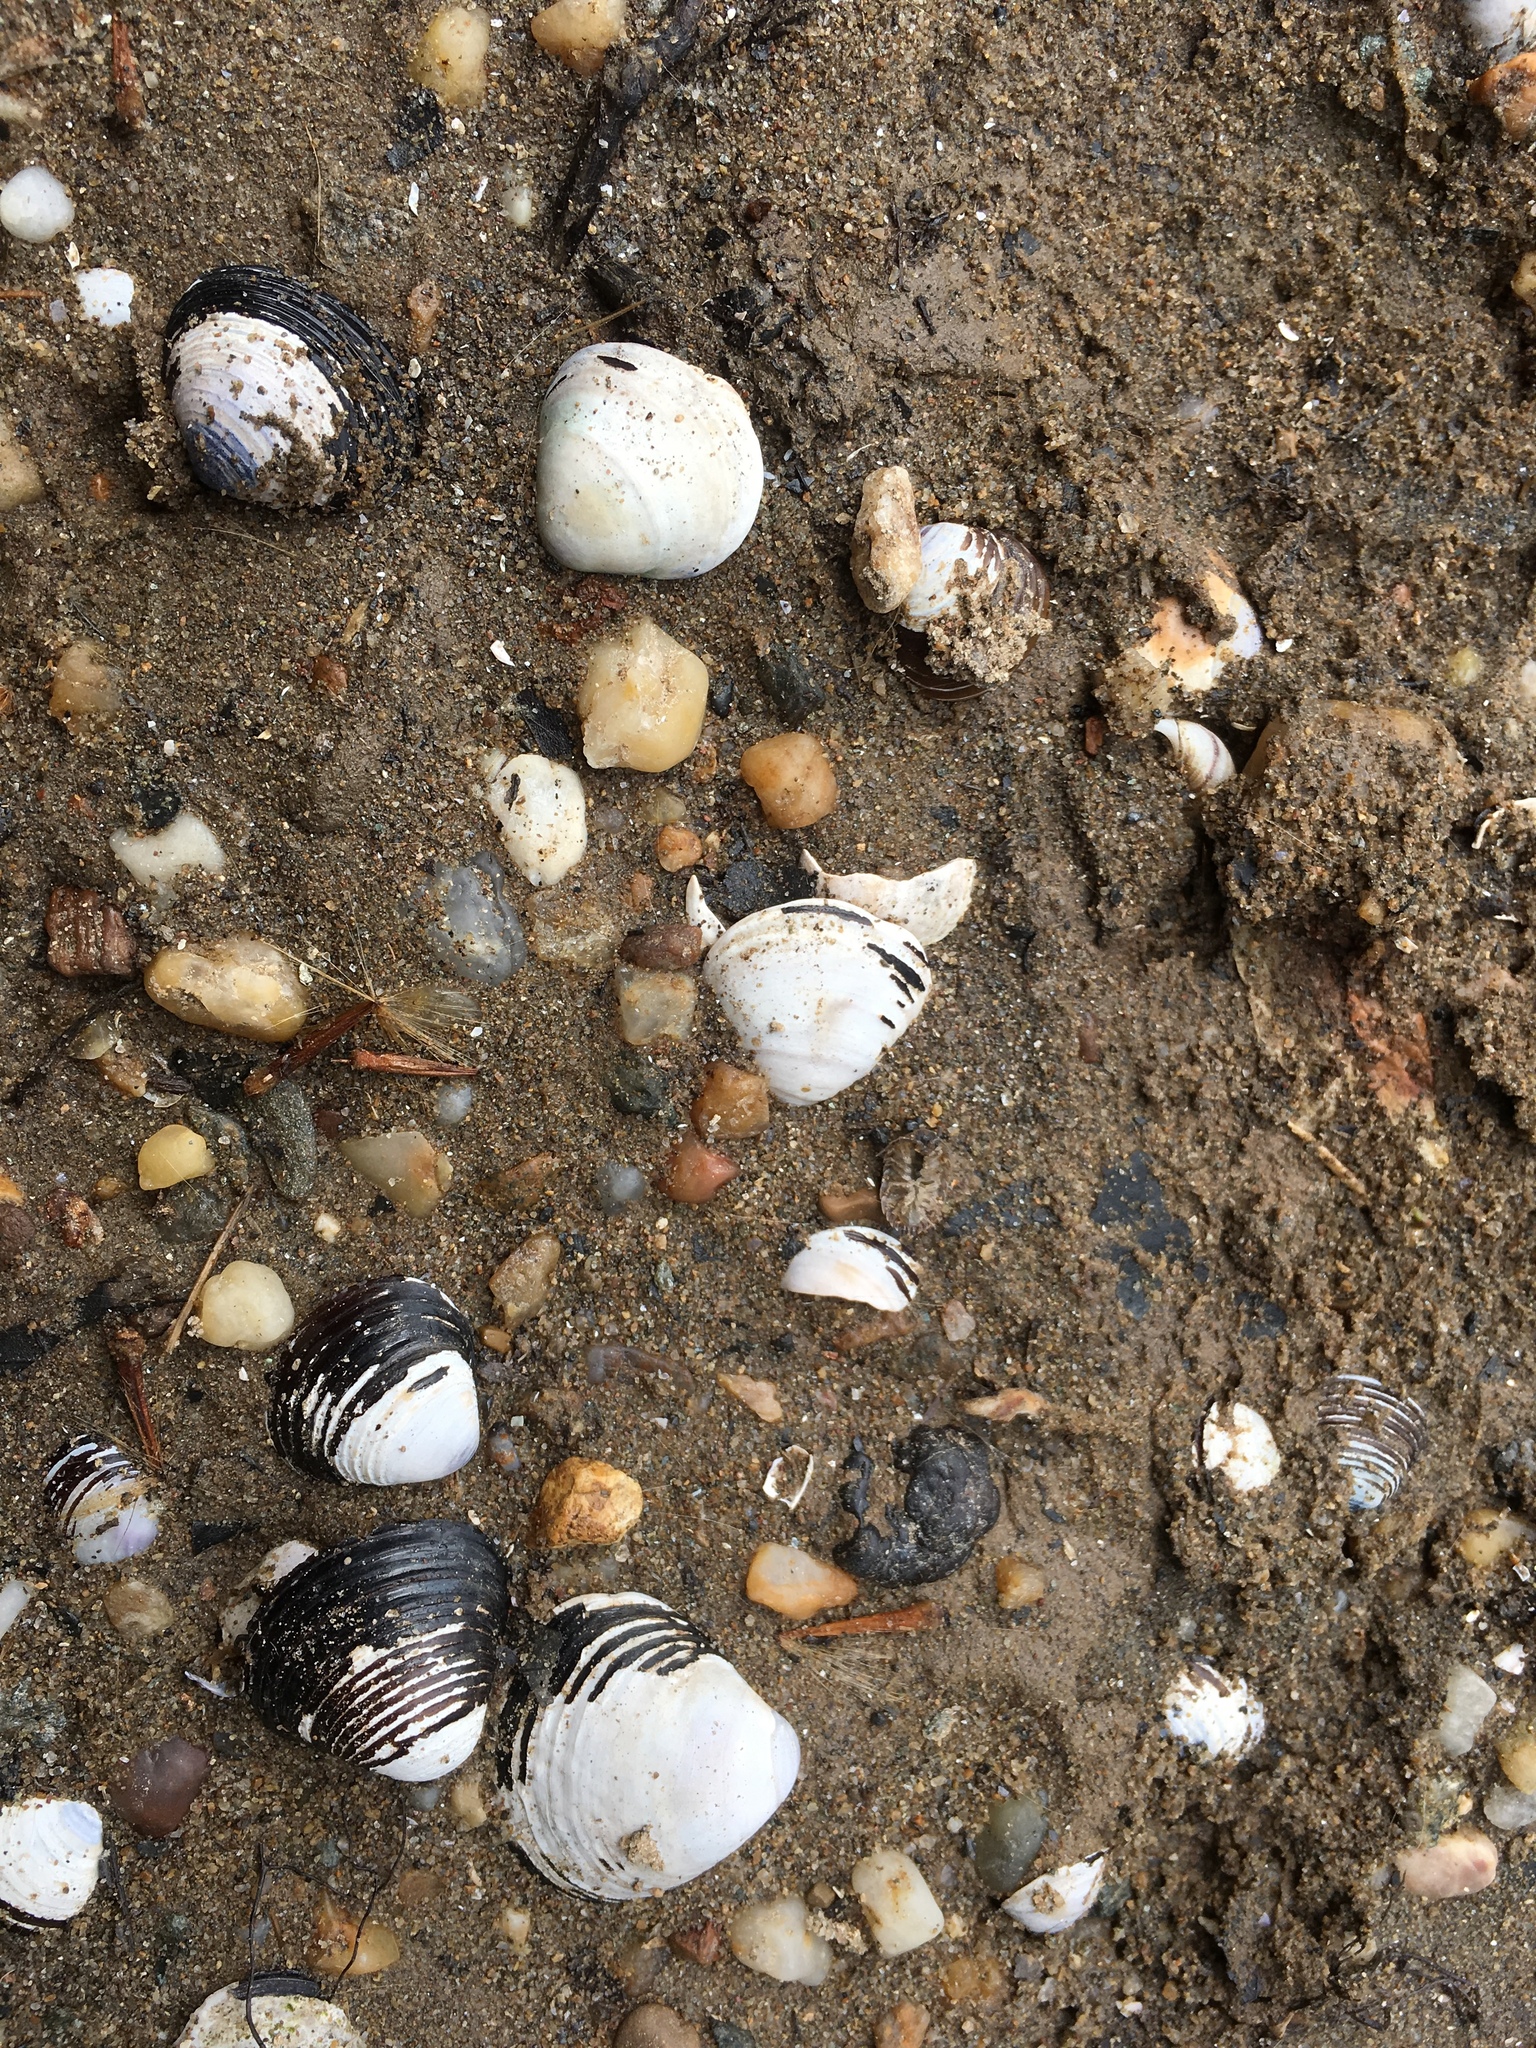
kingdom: Animalia
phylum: Mollusca
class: Bivalvia
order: Venerida
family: Cyrenidae
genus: Corbicula
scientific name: Corbicula fluminea
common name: Asian clam
